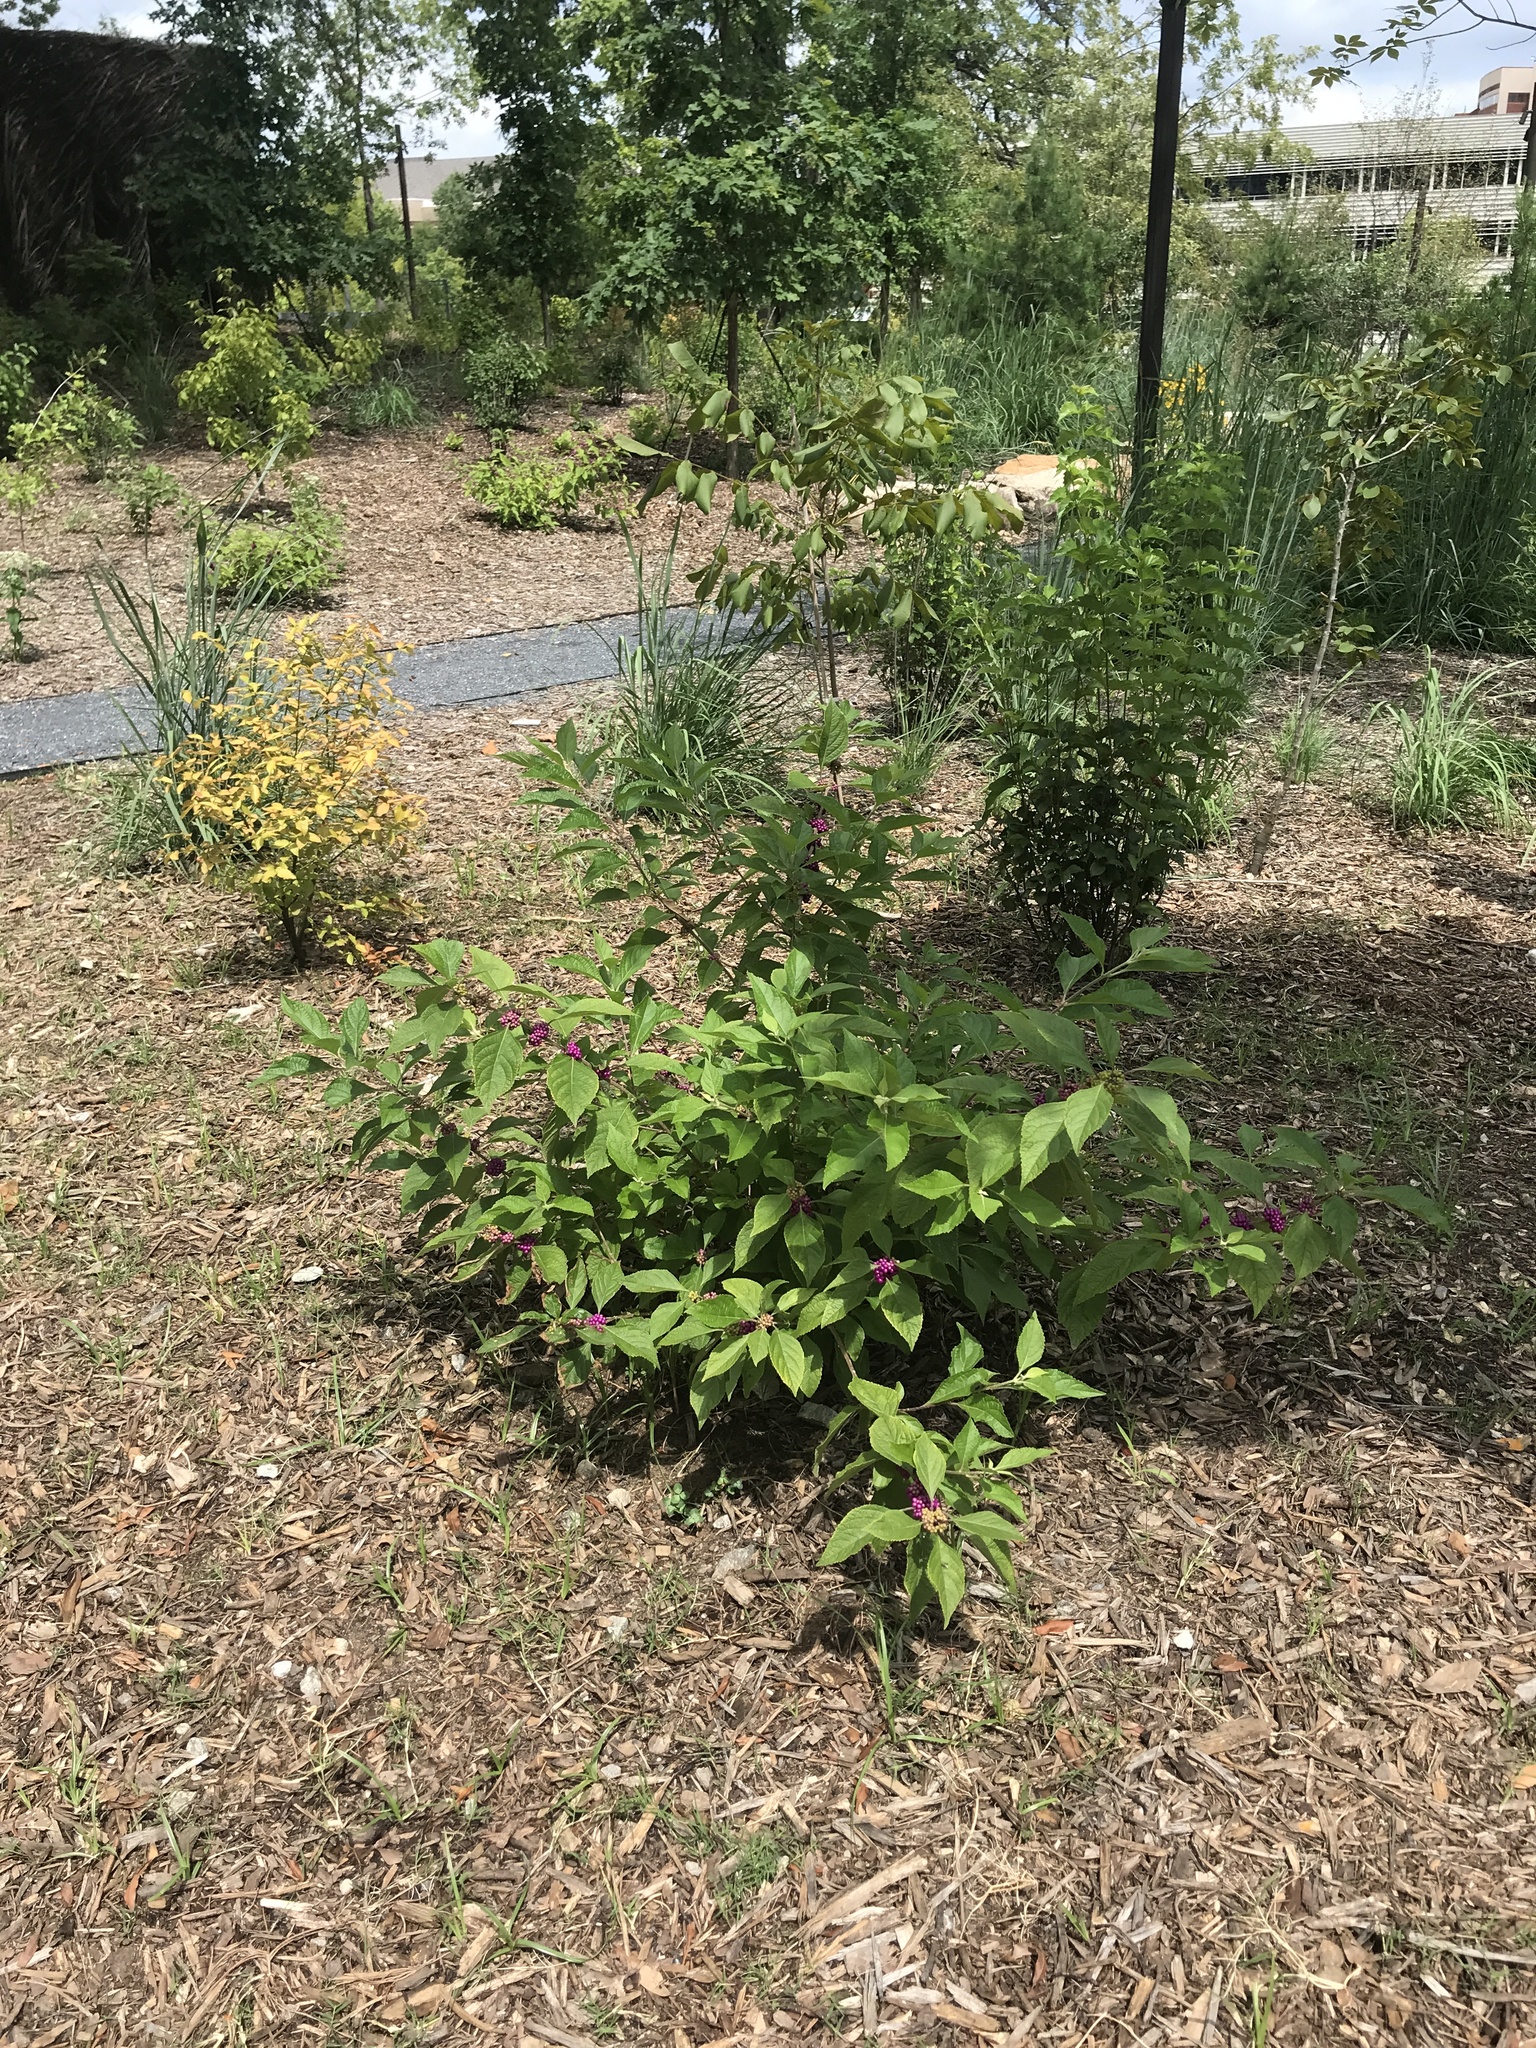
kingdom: Plantae
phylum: Tracheophyta
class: Magnoliopsida
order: Lamiales
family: Lamiaceae
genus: Callicarpa
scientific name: Callicarpa americana
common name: American beautyberry
